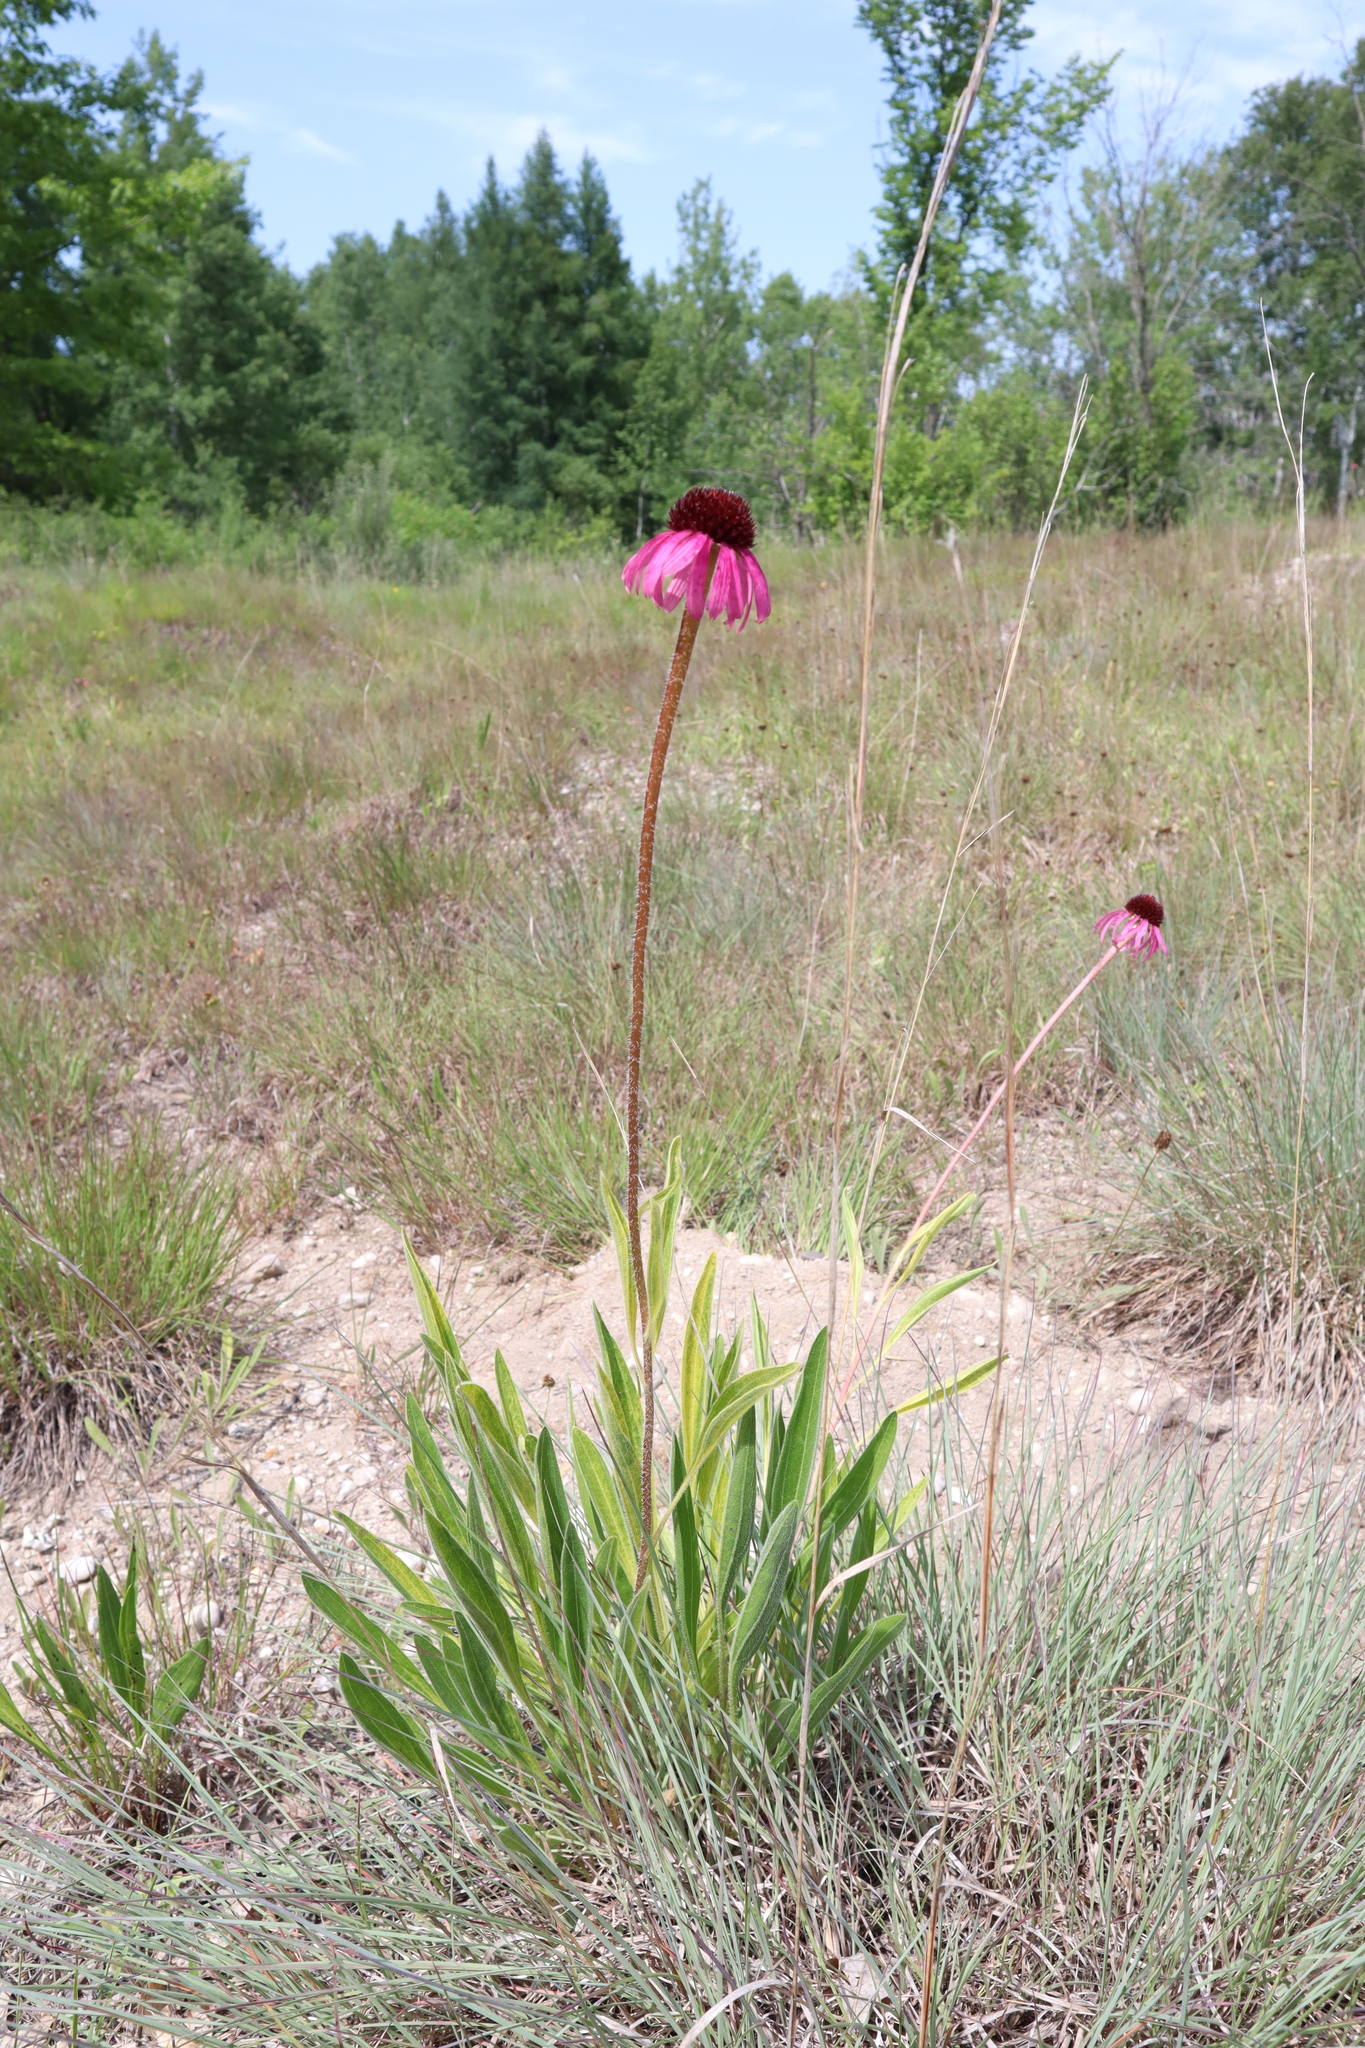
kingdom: Plantae
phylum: Tracheophyta
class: Magnoliopsida
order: Asterales
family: Asteraceae
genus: Echinacea
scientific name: Echinacea pallida
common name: Pale echinacea
